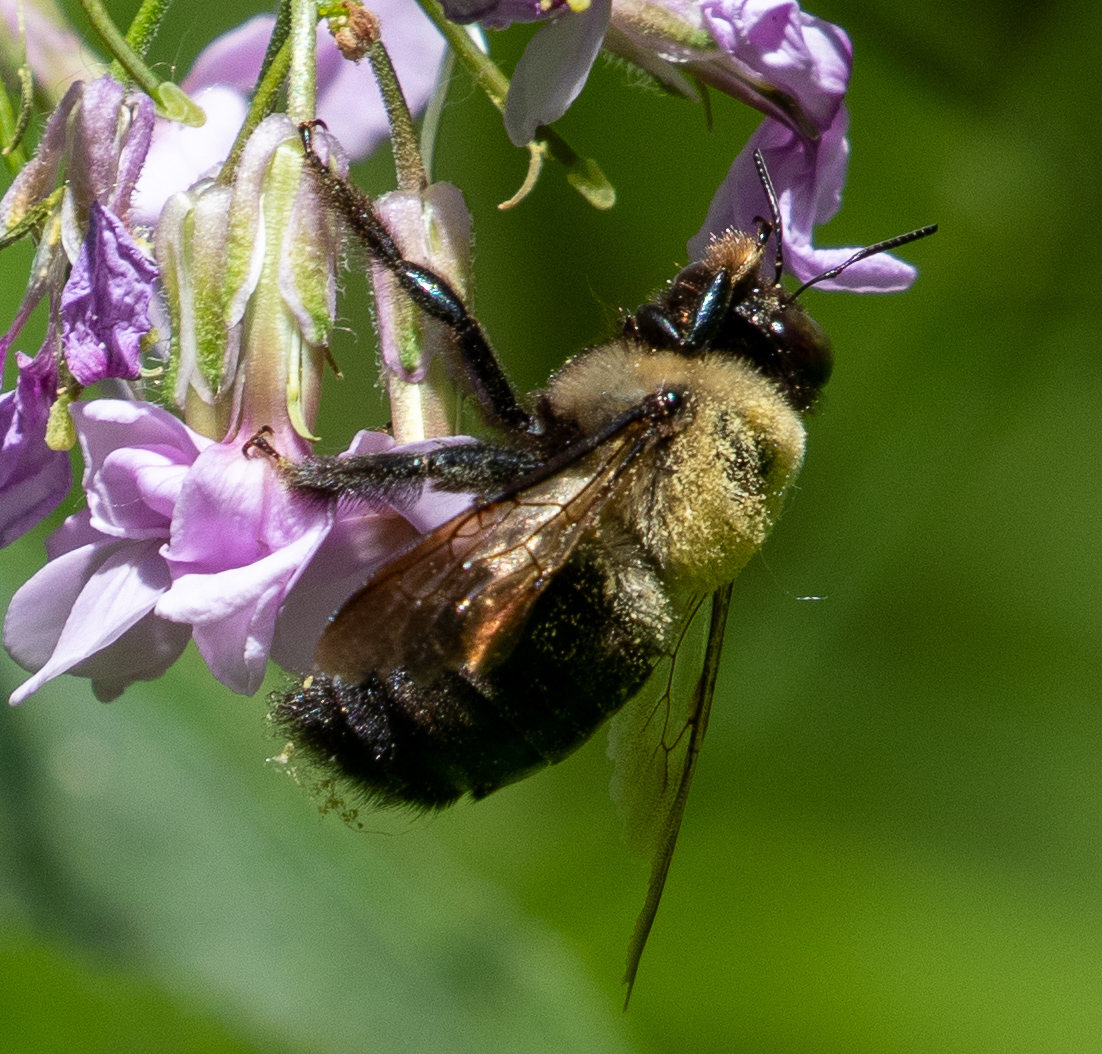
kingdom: Animalia
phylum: Arthropoda
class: Insecta
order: Hymenoptera
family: Apidae
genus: Xylocopa
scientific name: Xylocopa virginica
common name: Carpenter bee
